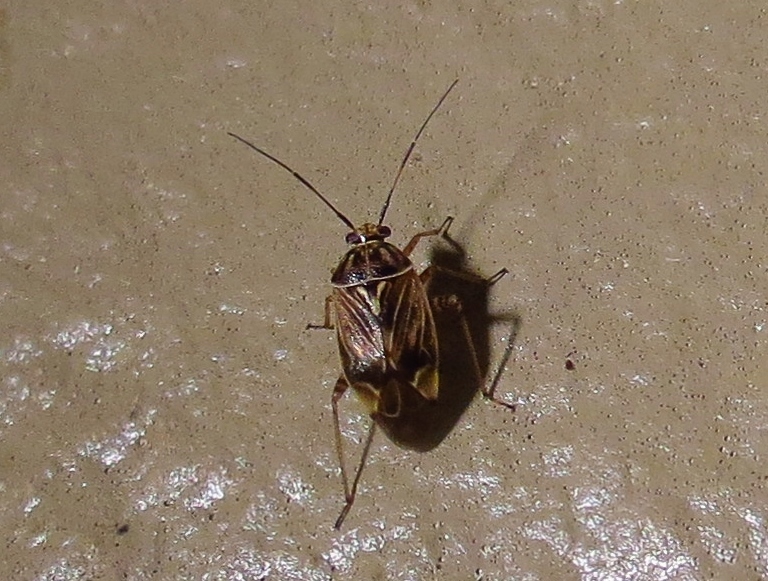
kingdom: Animalia
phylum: Arthropoda
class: Insecta
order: Hemiptera
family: Miridae
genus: Lygus
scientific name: Lygus lineolaris
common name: North american tarnished plant bug
